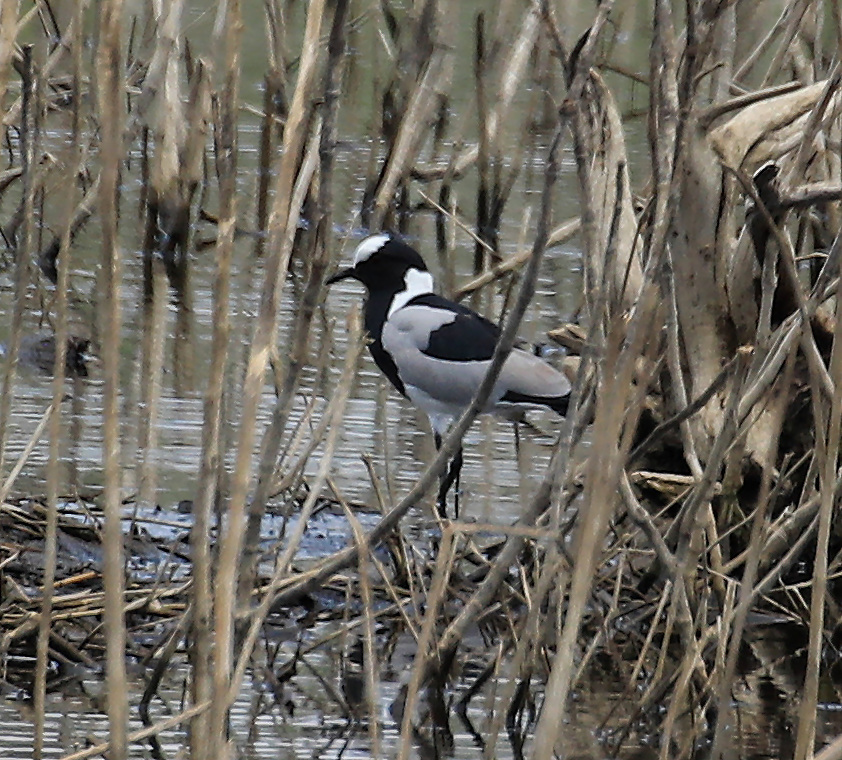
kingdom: Animalia
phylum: Chordata
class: Aves
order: Charadriiformes
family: Charadriidae
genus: Vanellus
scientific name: Vanellus armatus
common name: Blacksmith lapwing
